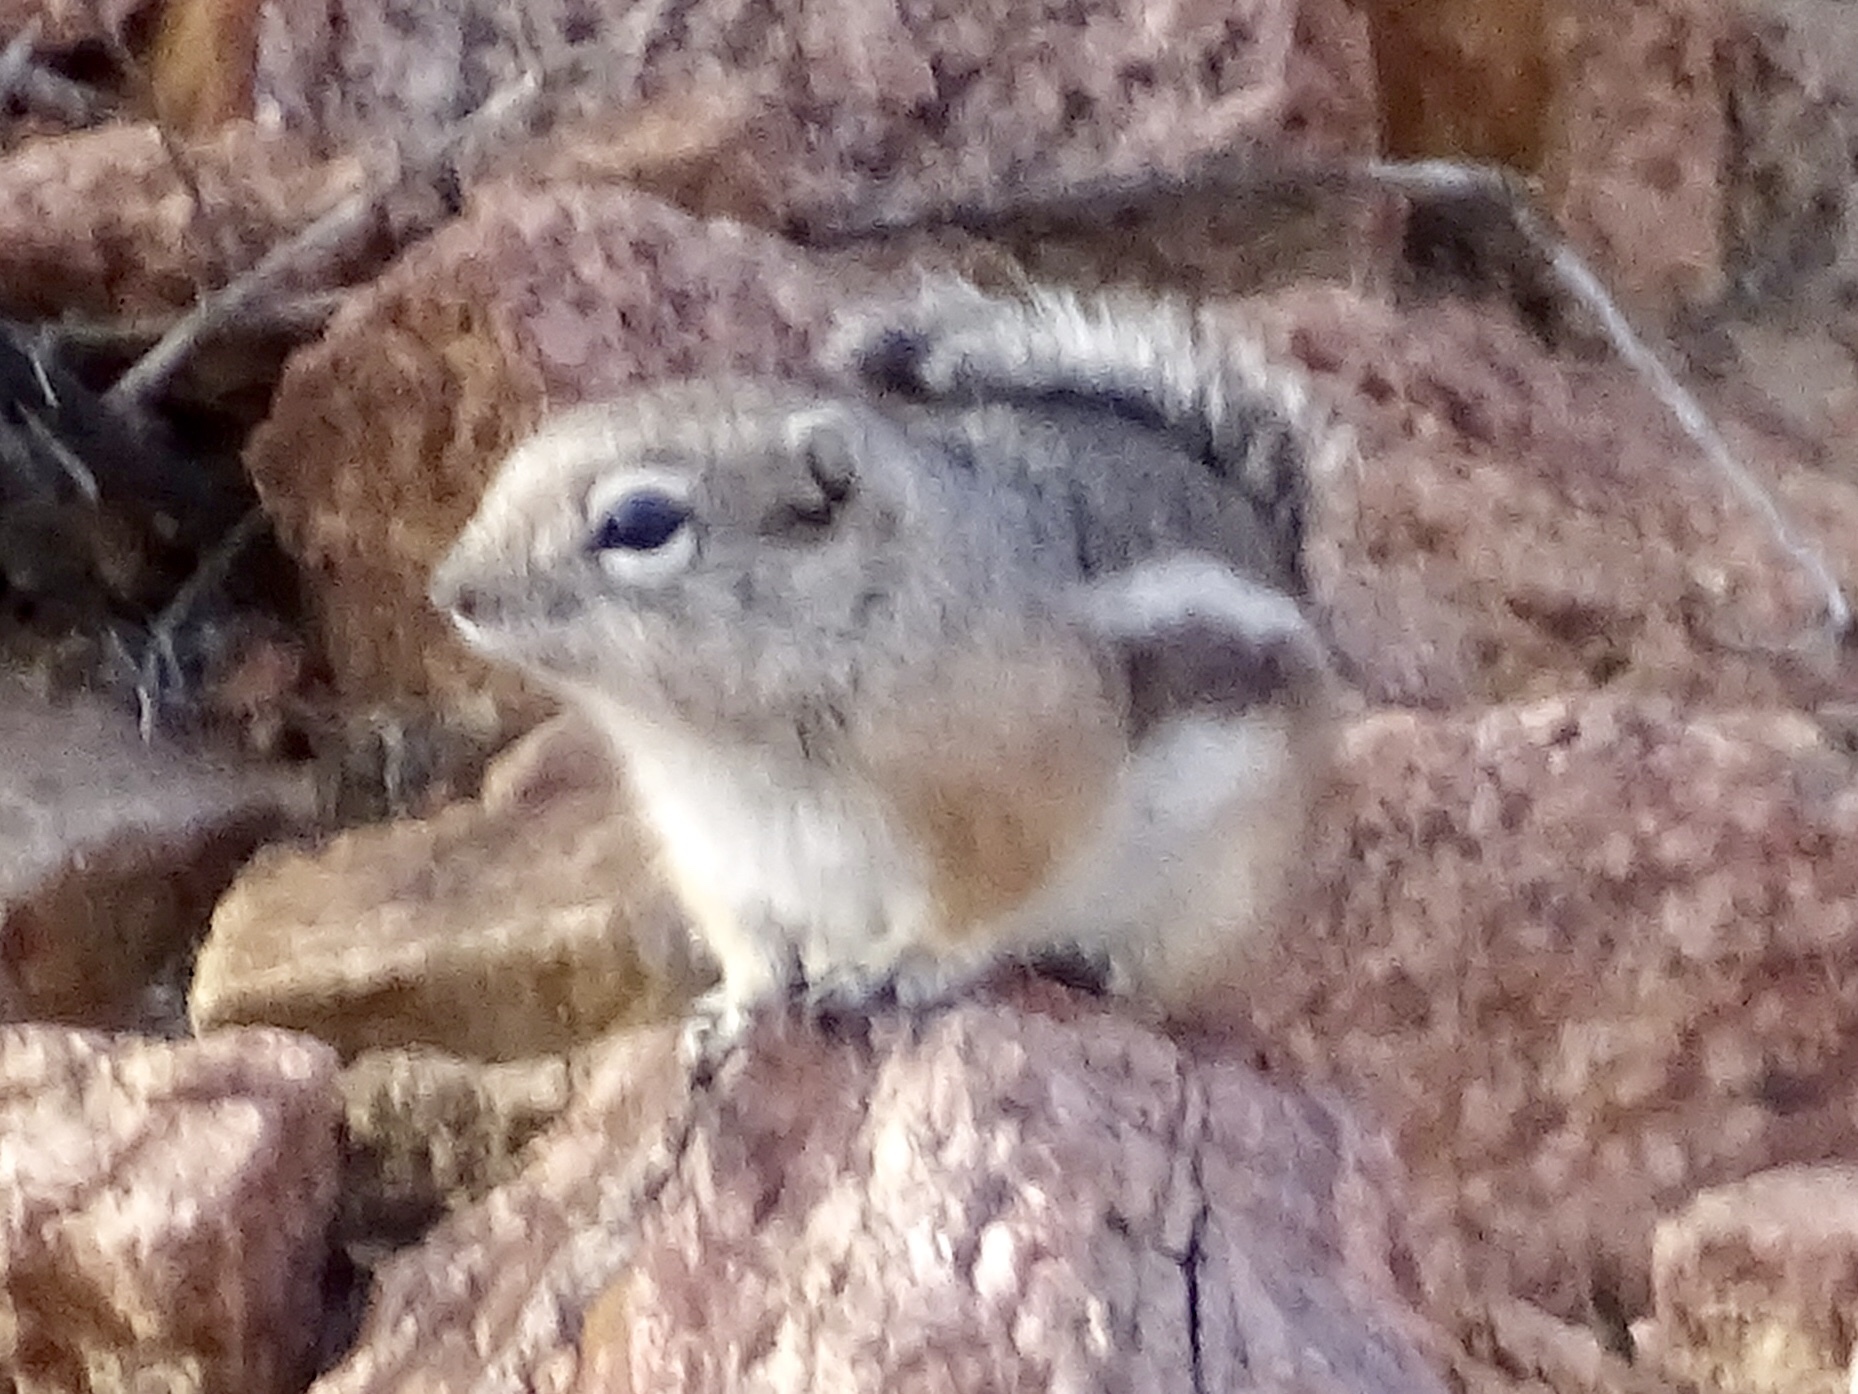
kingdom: Animalia
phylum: Chordata
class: Mammalia
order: Rodentia
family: Sciuridae
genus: Ammospermophilus
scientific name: Ammospermophilus interpres
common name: Texas antelope squirrel
